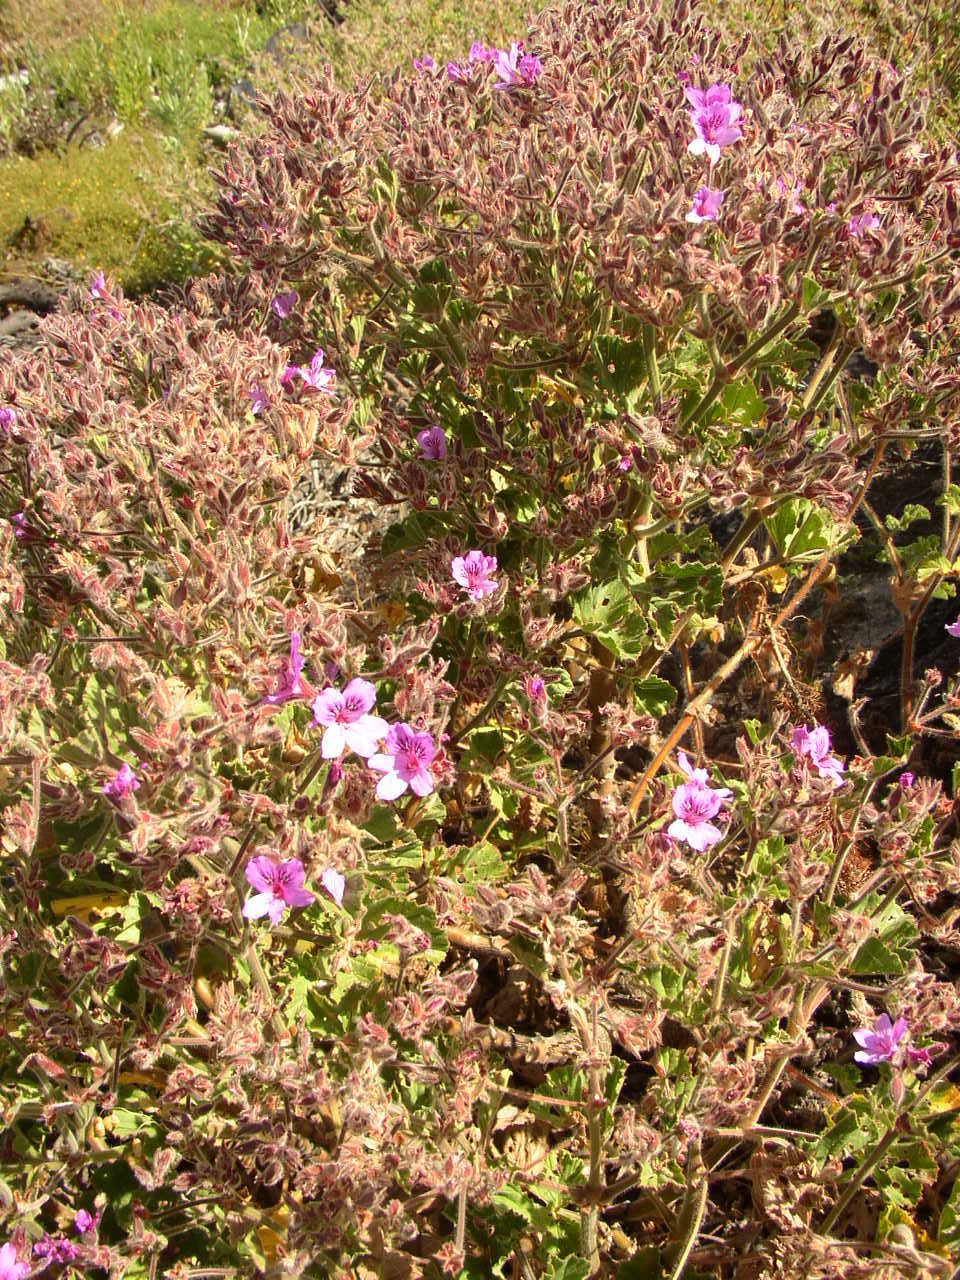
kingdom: Plantae
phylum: Tracheophyta
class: Magnoliopsida
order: Geraniales
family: Geraniaceae
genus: Pelargonium
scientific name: Pelargonium cucullatum
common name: Tree pelargonium
